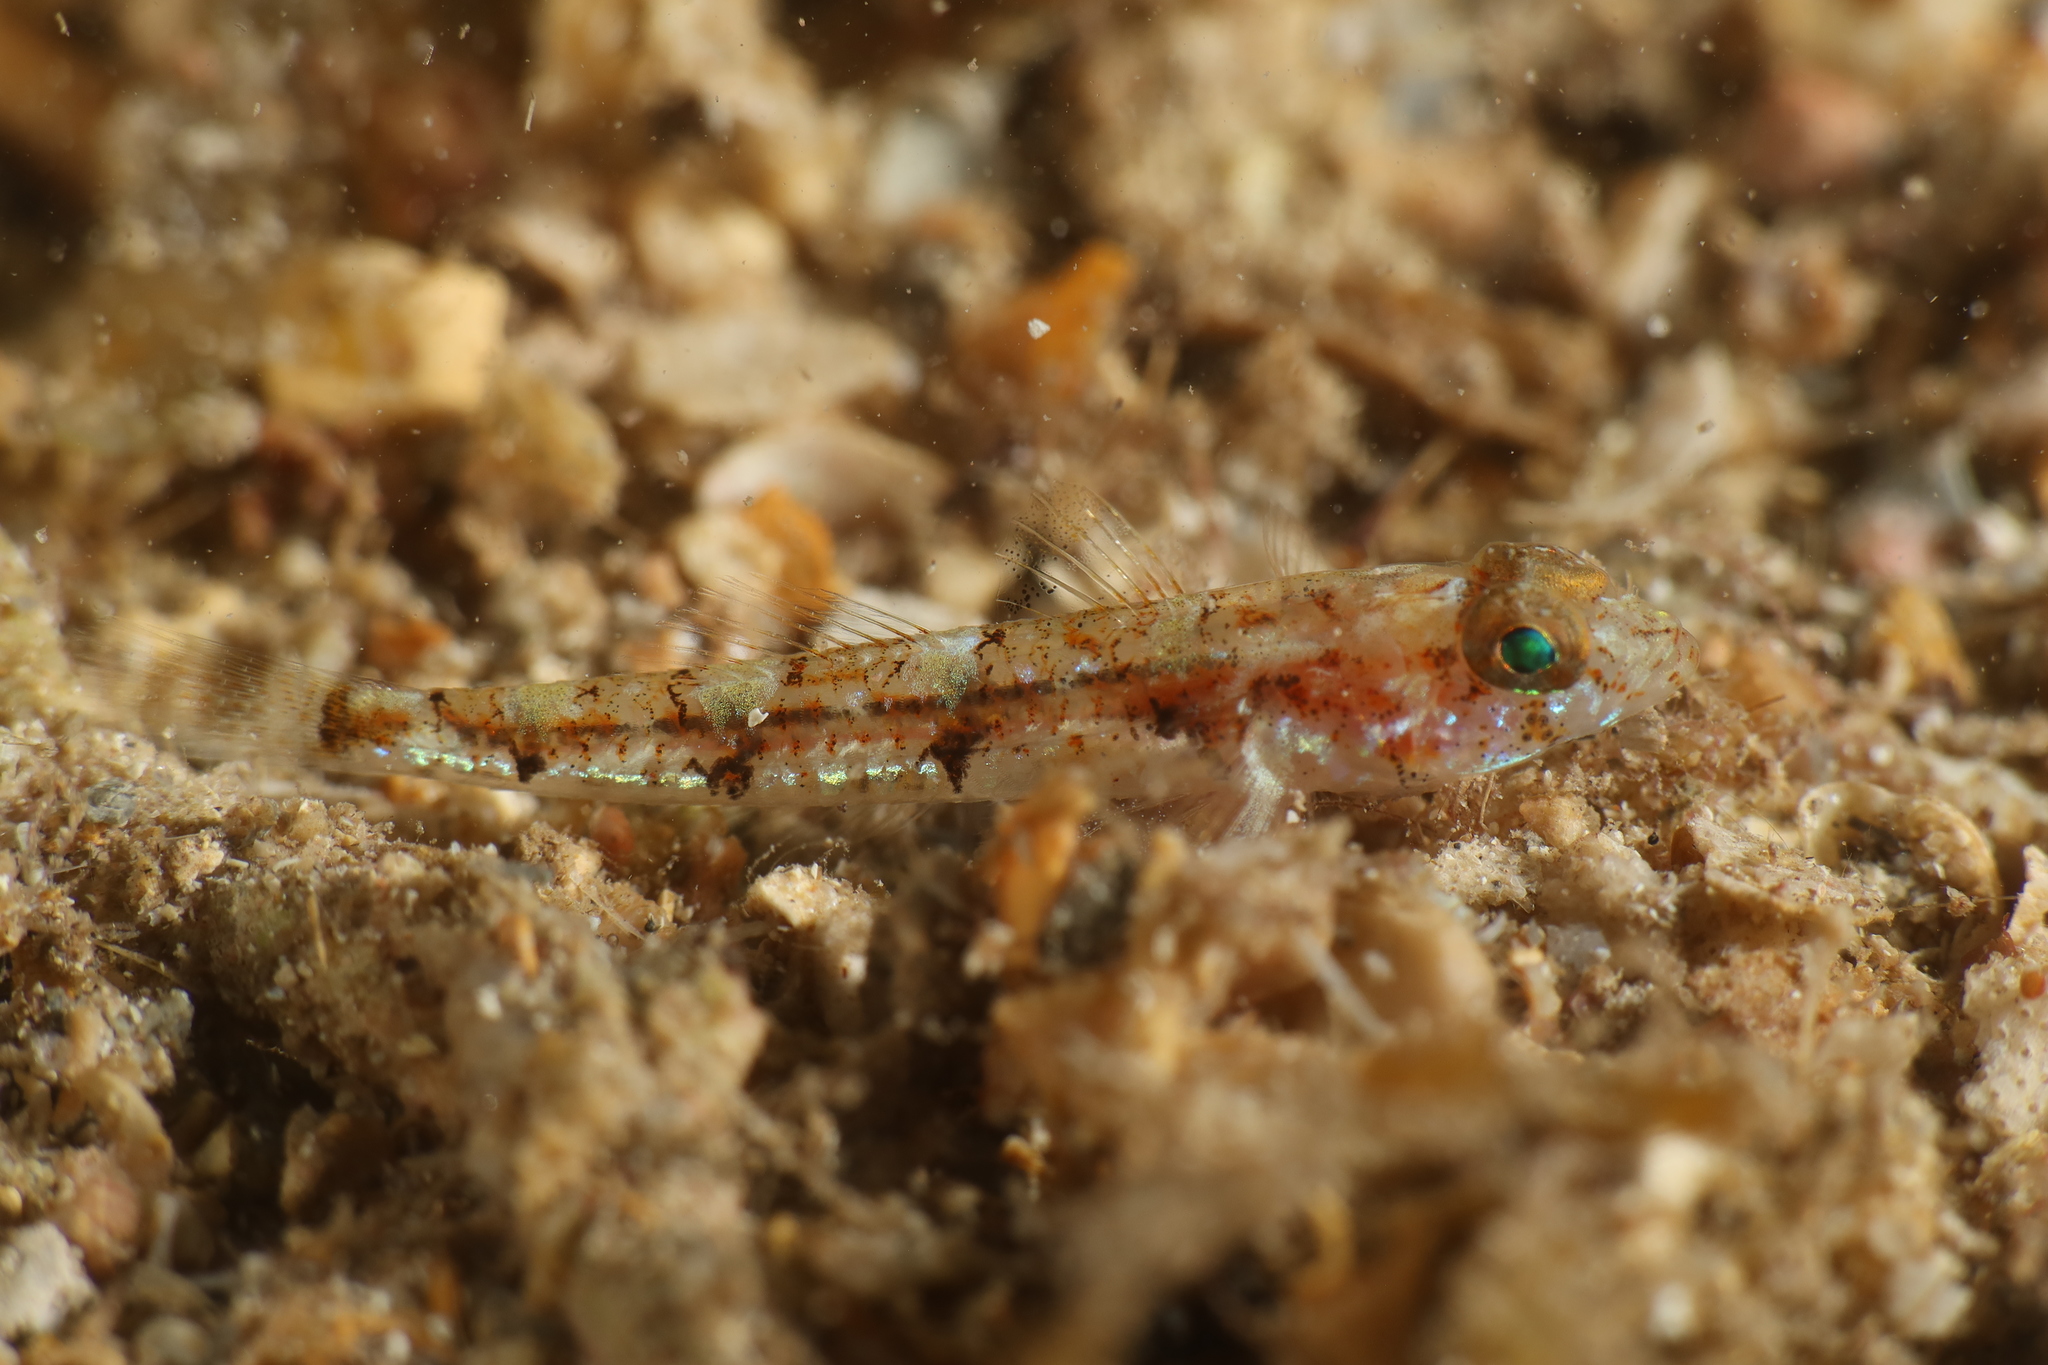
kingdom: Animalia
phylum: Chordata
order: Perciformes
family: Gobiidae
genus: Buenia
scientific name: Buenia affinis
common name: De buen's goby
